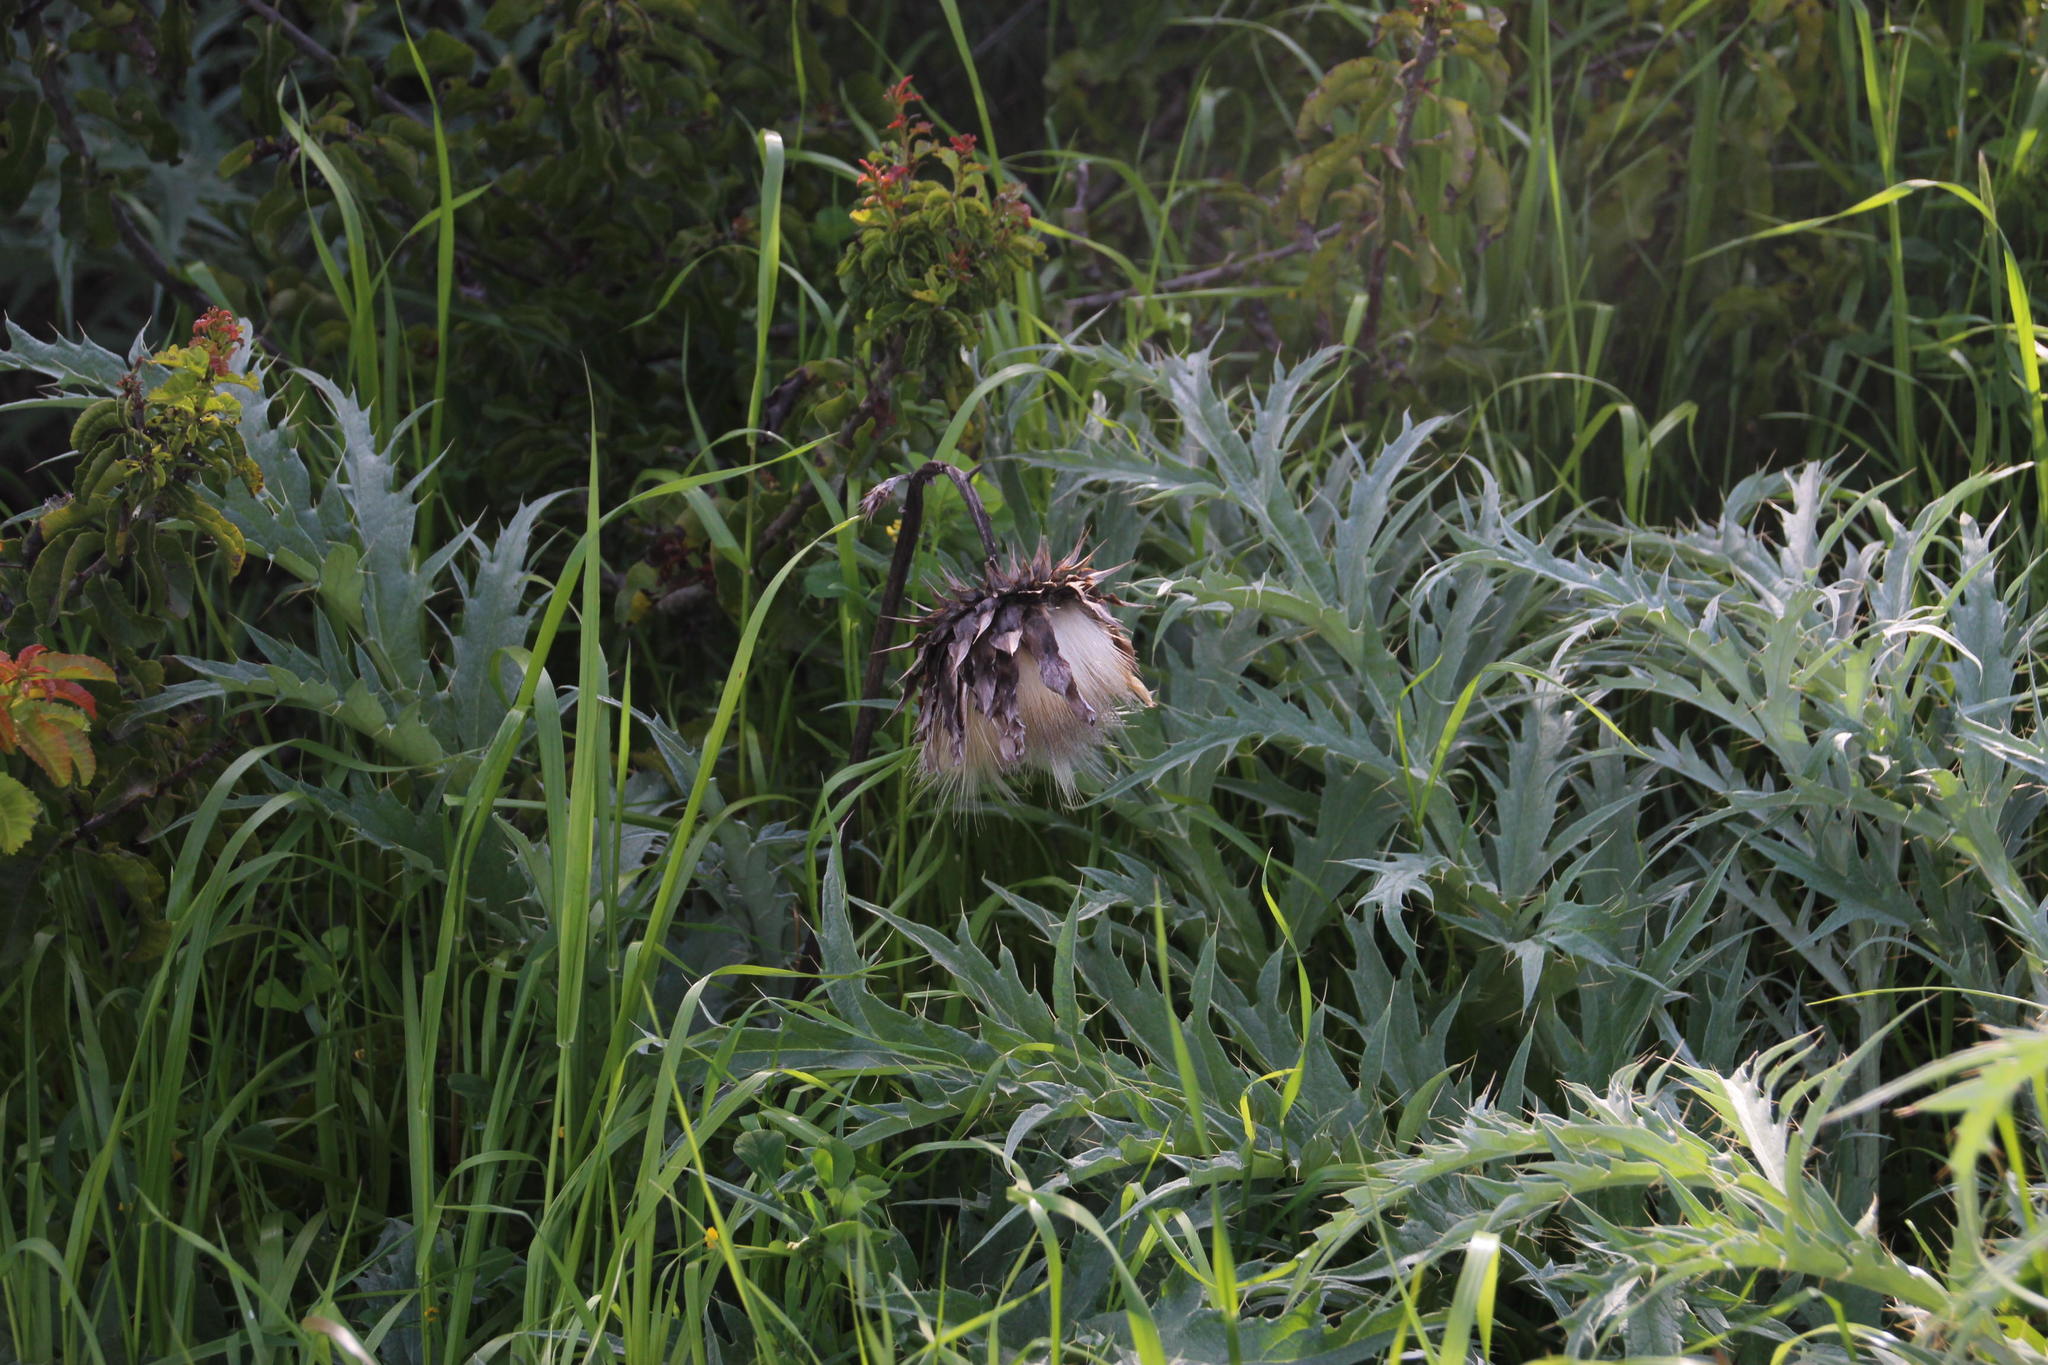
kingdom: Plantae
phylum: Tracheophyta
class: Magnoliopsida
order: Asterales
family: Asteraceae
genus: Cynara
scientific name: Cynara cardunculus
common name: Globe artichoke
